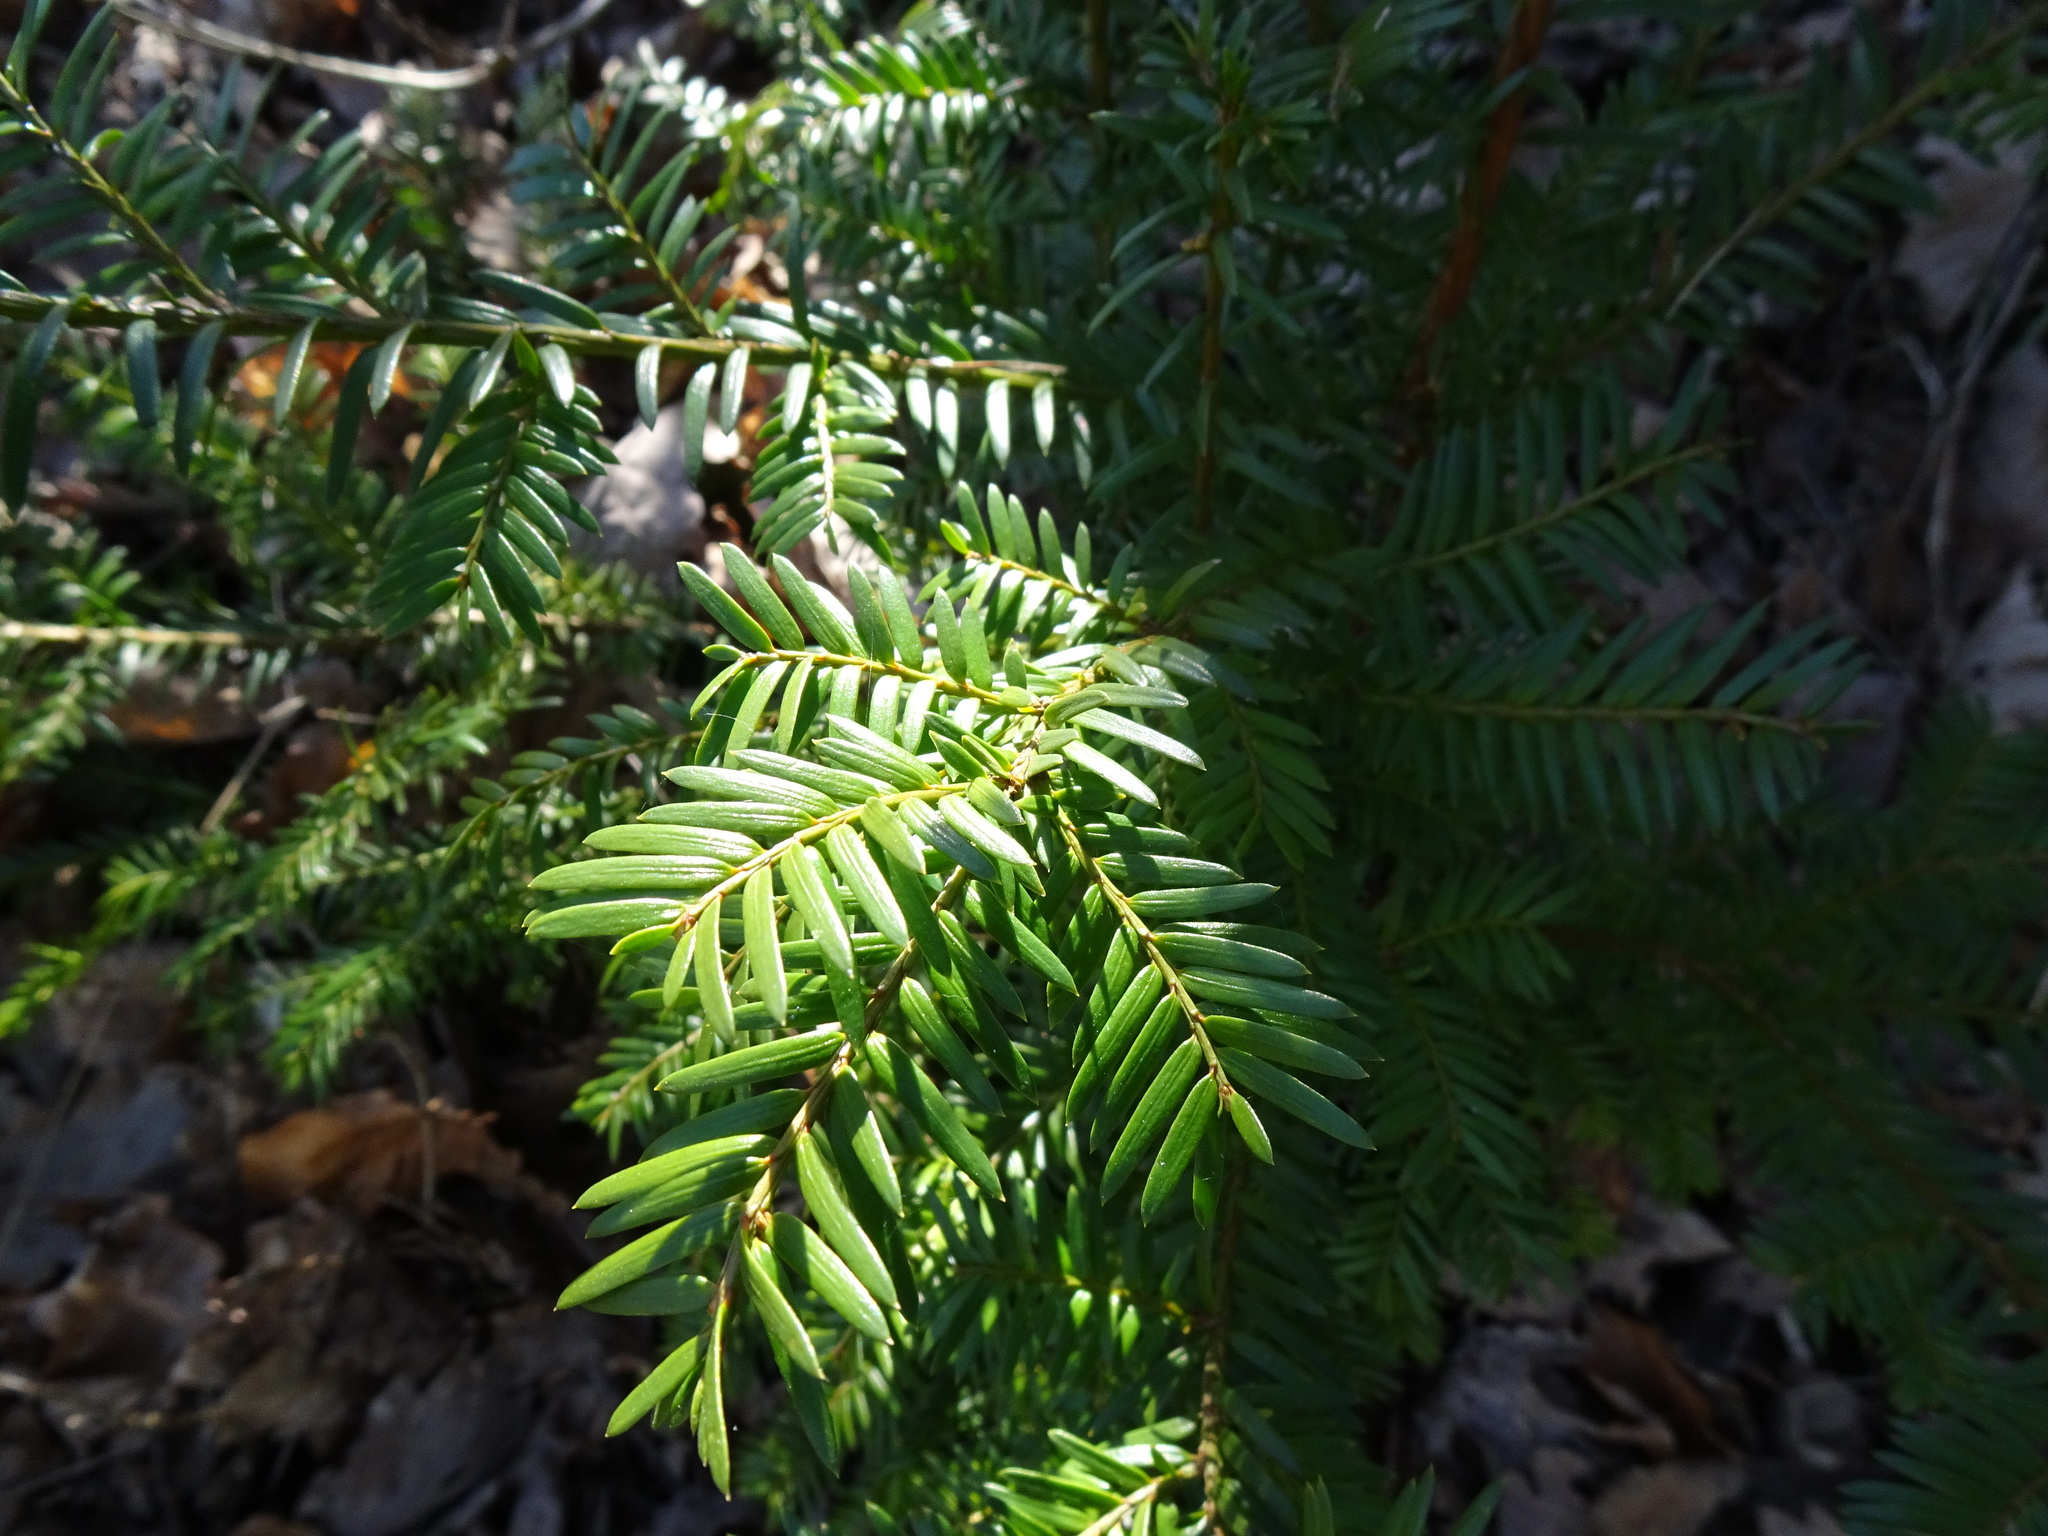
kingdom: Plantae
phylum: Tracheophyta
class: Pinopsida
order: Pinales
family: Taxaceae
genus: Taxus
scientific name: Taxus baccata
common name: Yew
